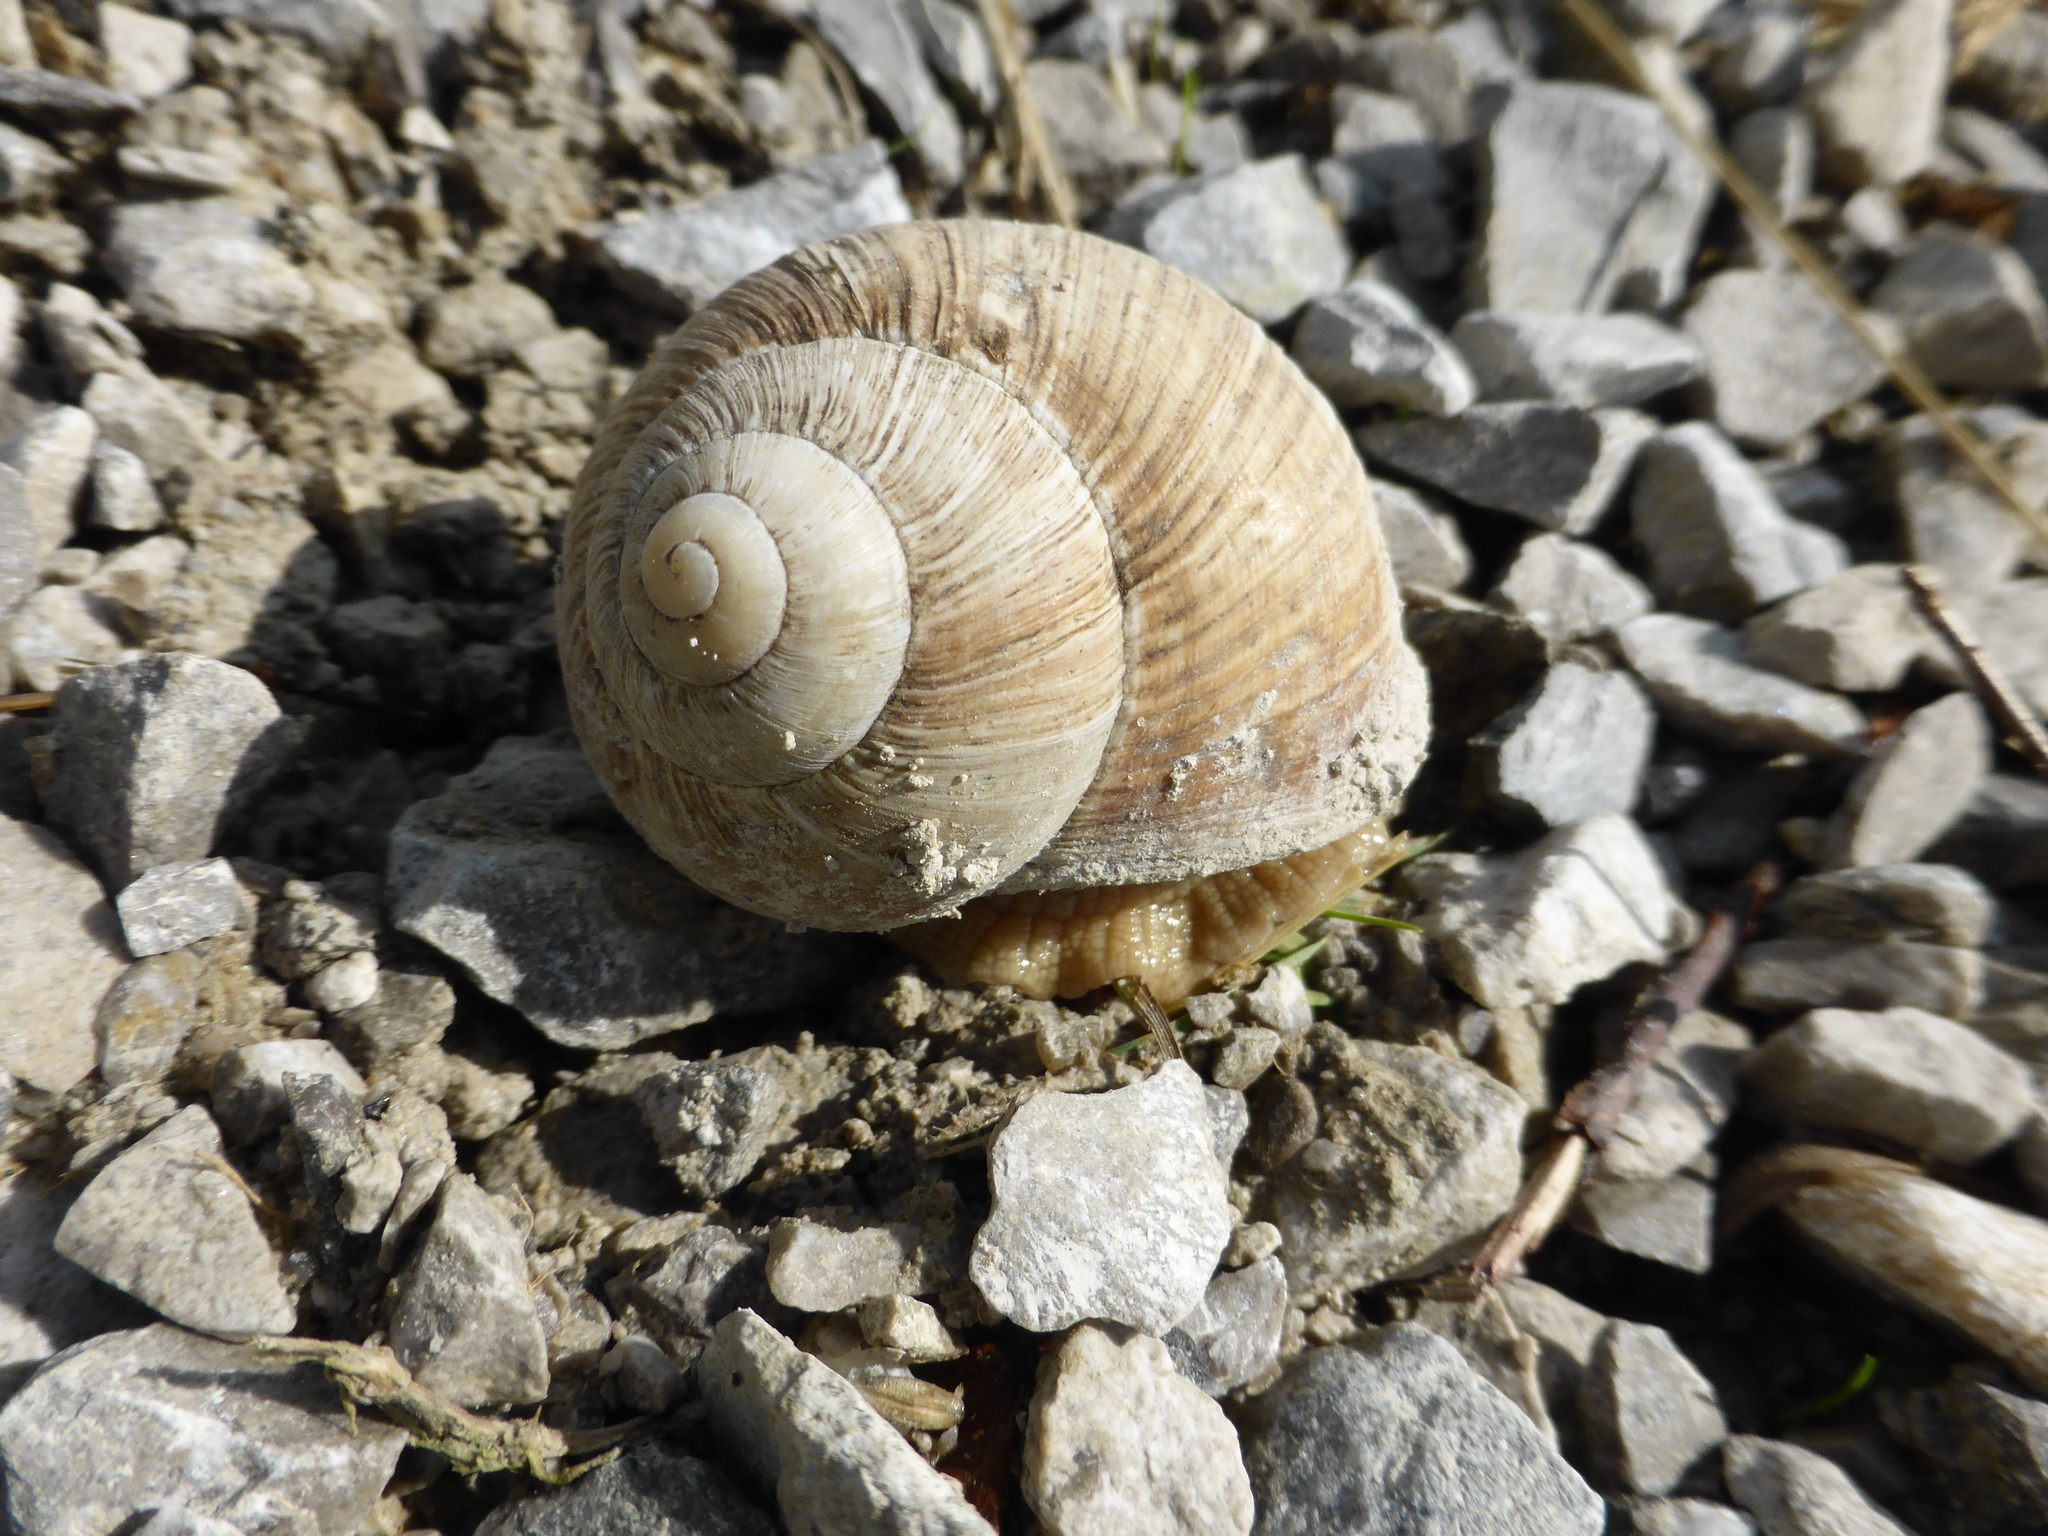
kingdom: Animalia
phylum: Mollusca
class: Gastropoda
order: Stylommatophora
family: Helicidae
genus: Helix
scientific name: Helix pomatia
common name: Roman snail
